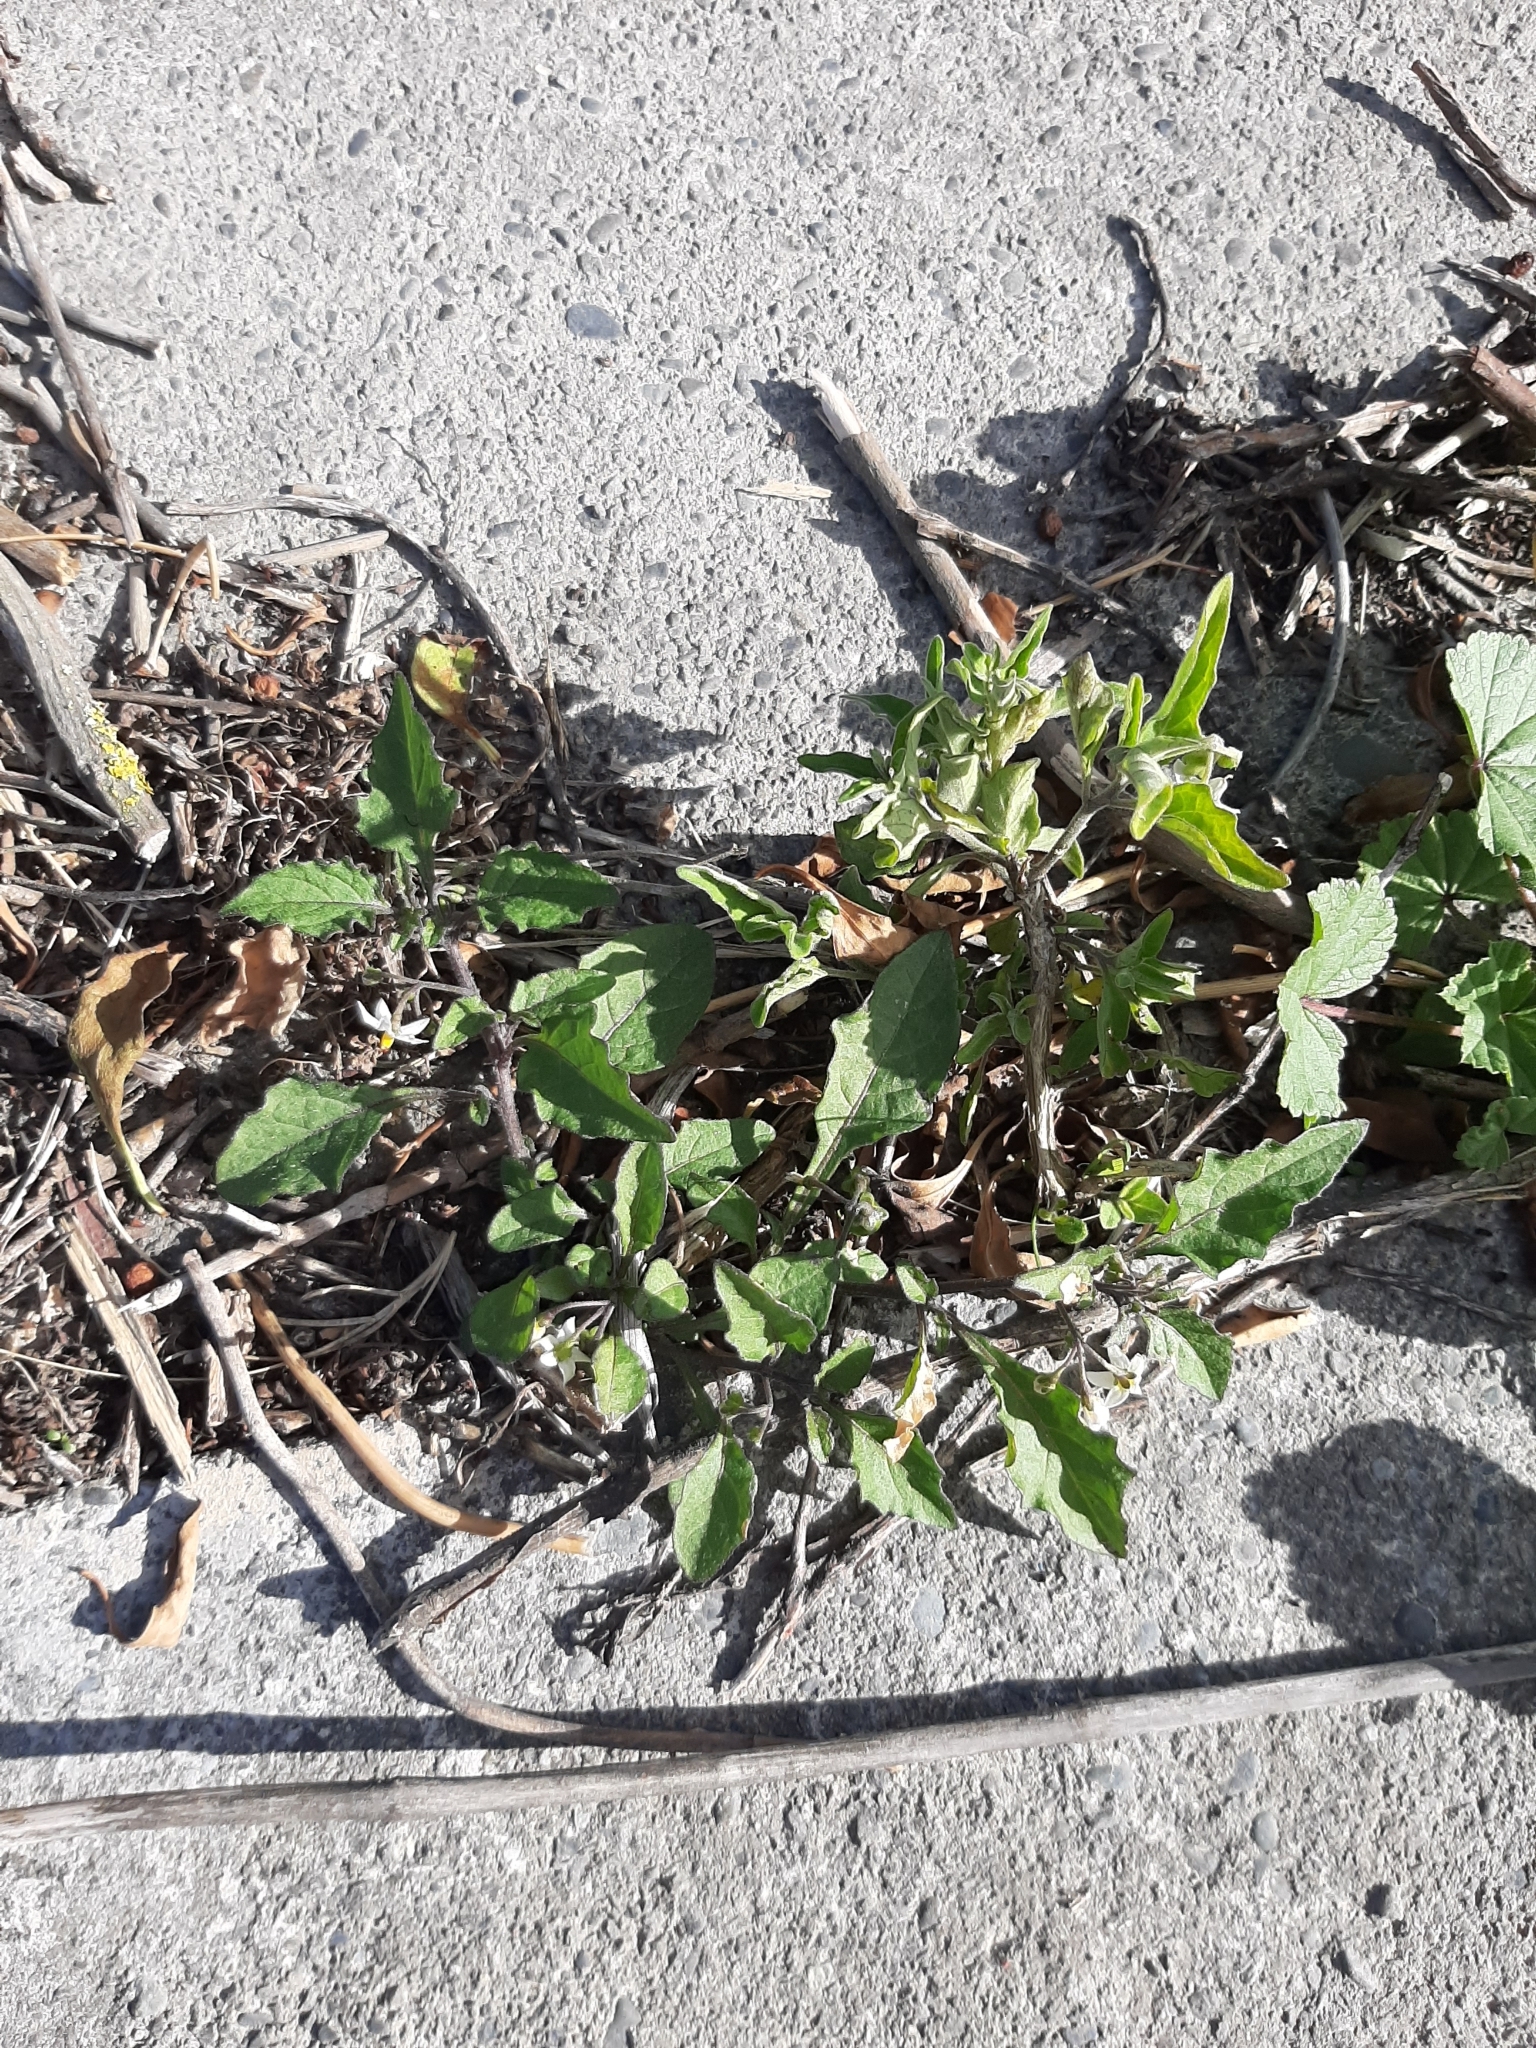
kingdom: Plantae
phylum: Tracheophyta
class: Magnoliopsida
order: Solanales
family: Solanaceae
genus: Solanum
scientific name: Solanum nigrum
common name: Black nightshade
